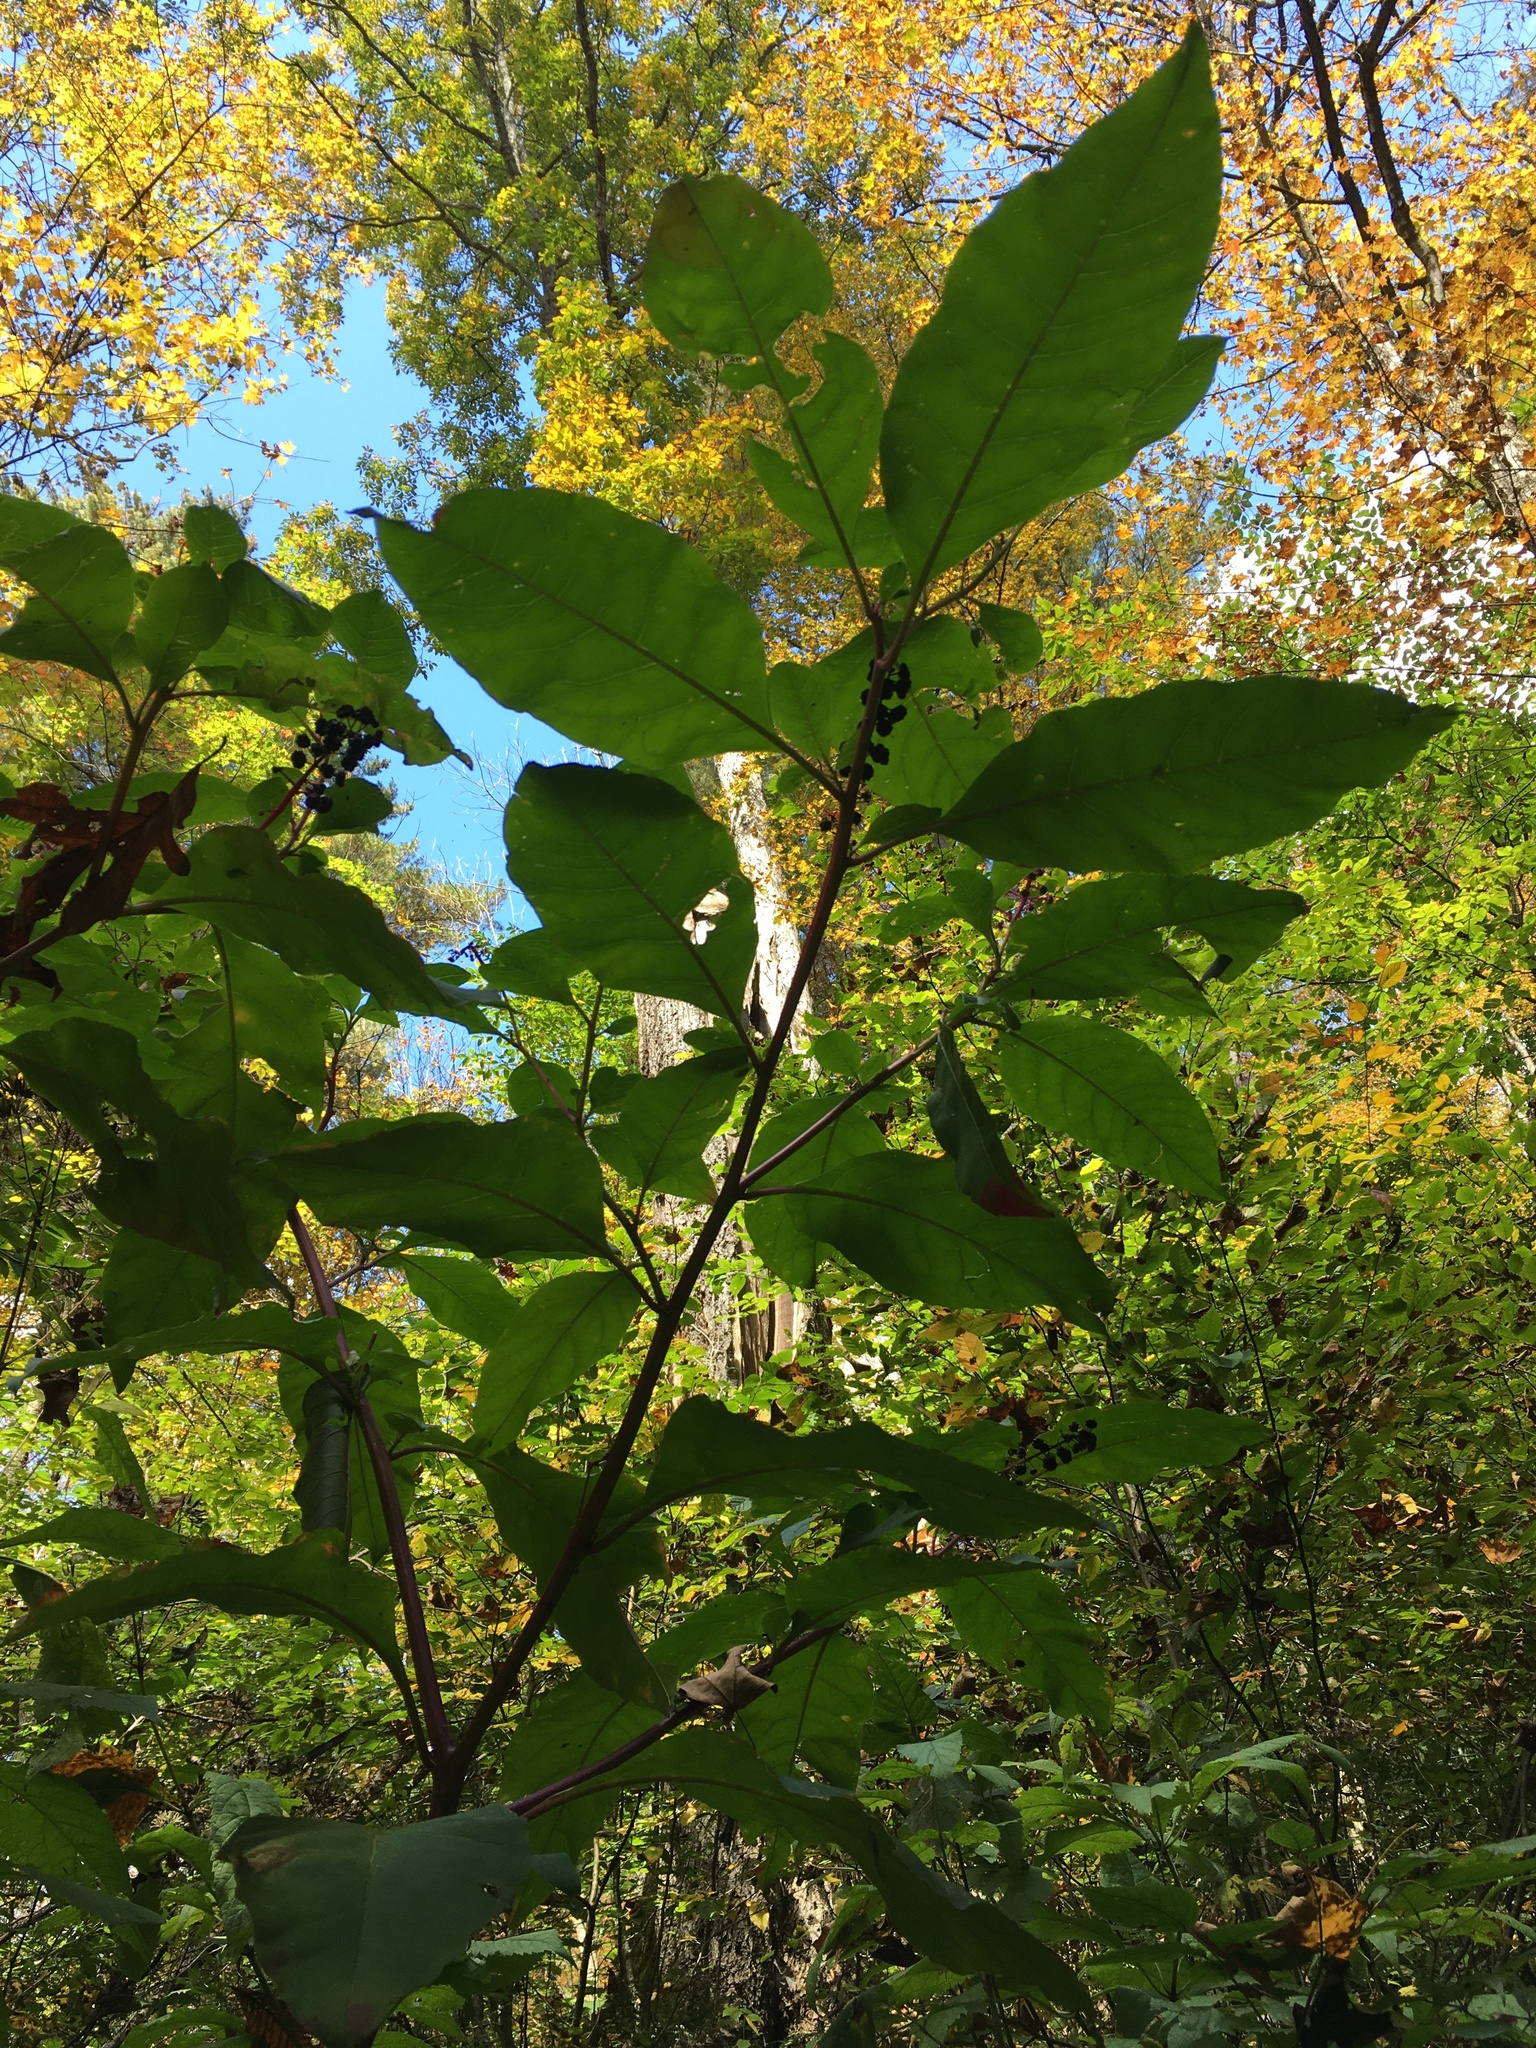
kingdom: Plantae
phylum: Tracheophyta
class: Magnoliopsida
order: Caryophyllales
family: Phytolaccaceae
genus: Phytolacca
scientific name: Phytolacca americana
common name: American pokeweed
